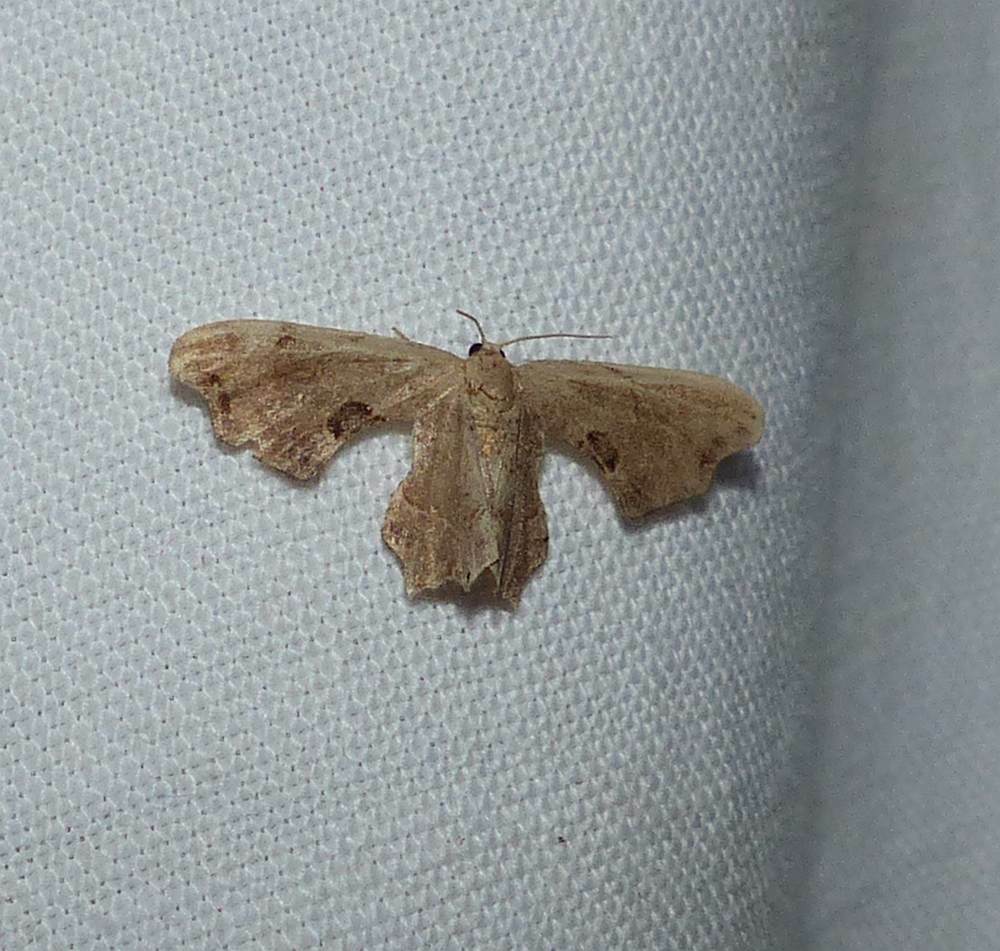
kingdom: Animalia
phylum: Arthropoda
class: Insecta
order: Lepidoptera
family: Uraniidae
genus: Epiplema
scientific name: Epiplema Calledapteryx dryopterata
